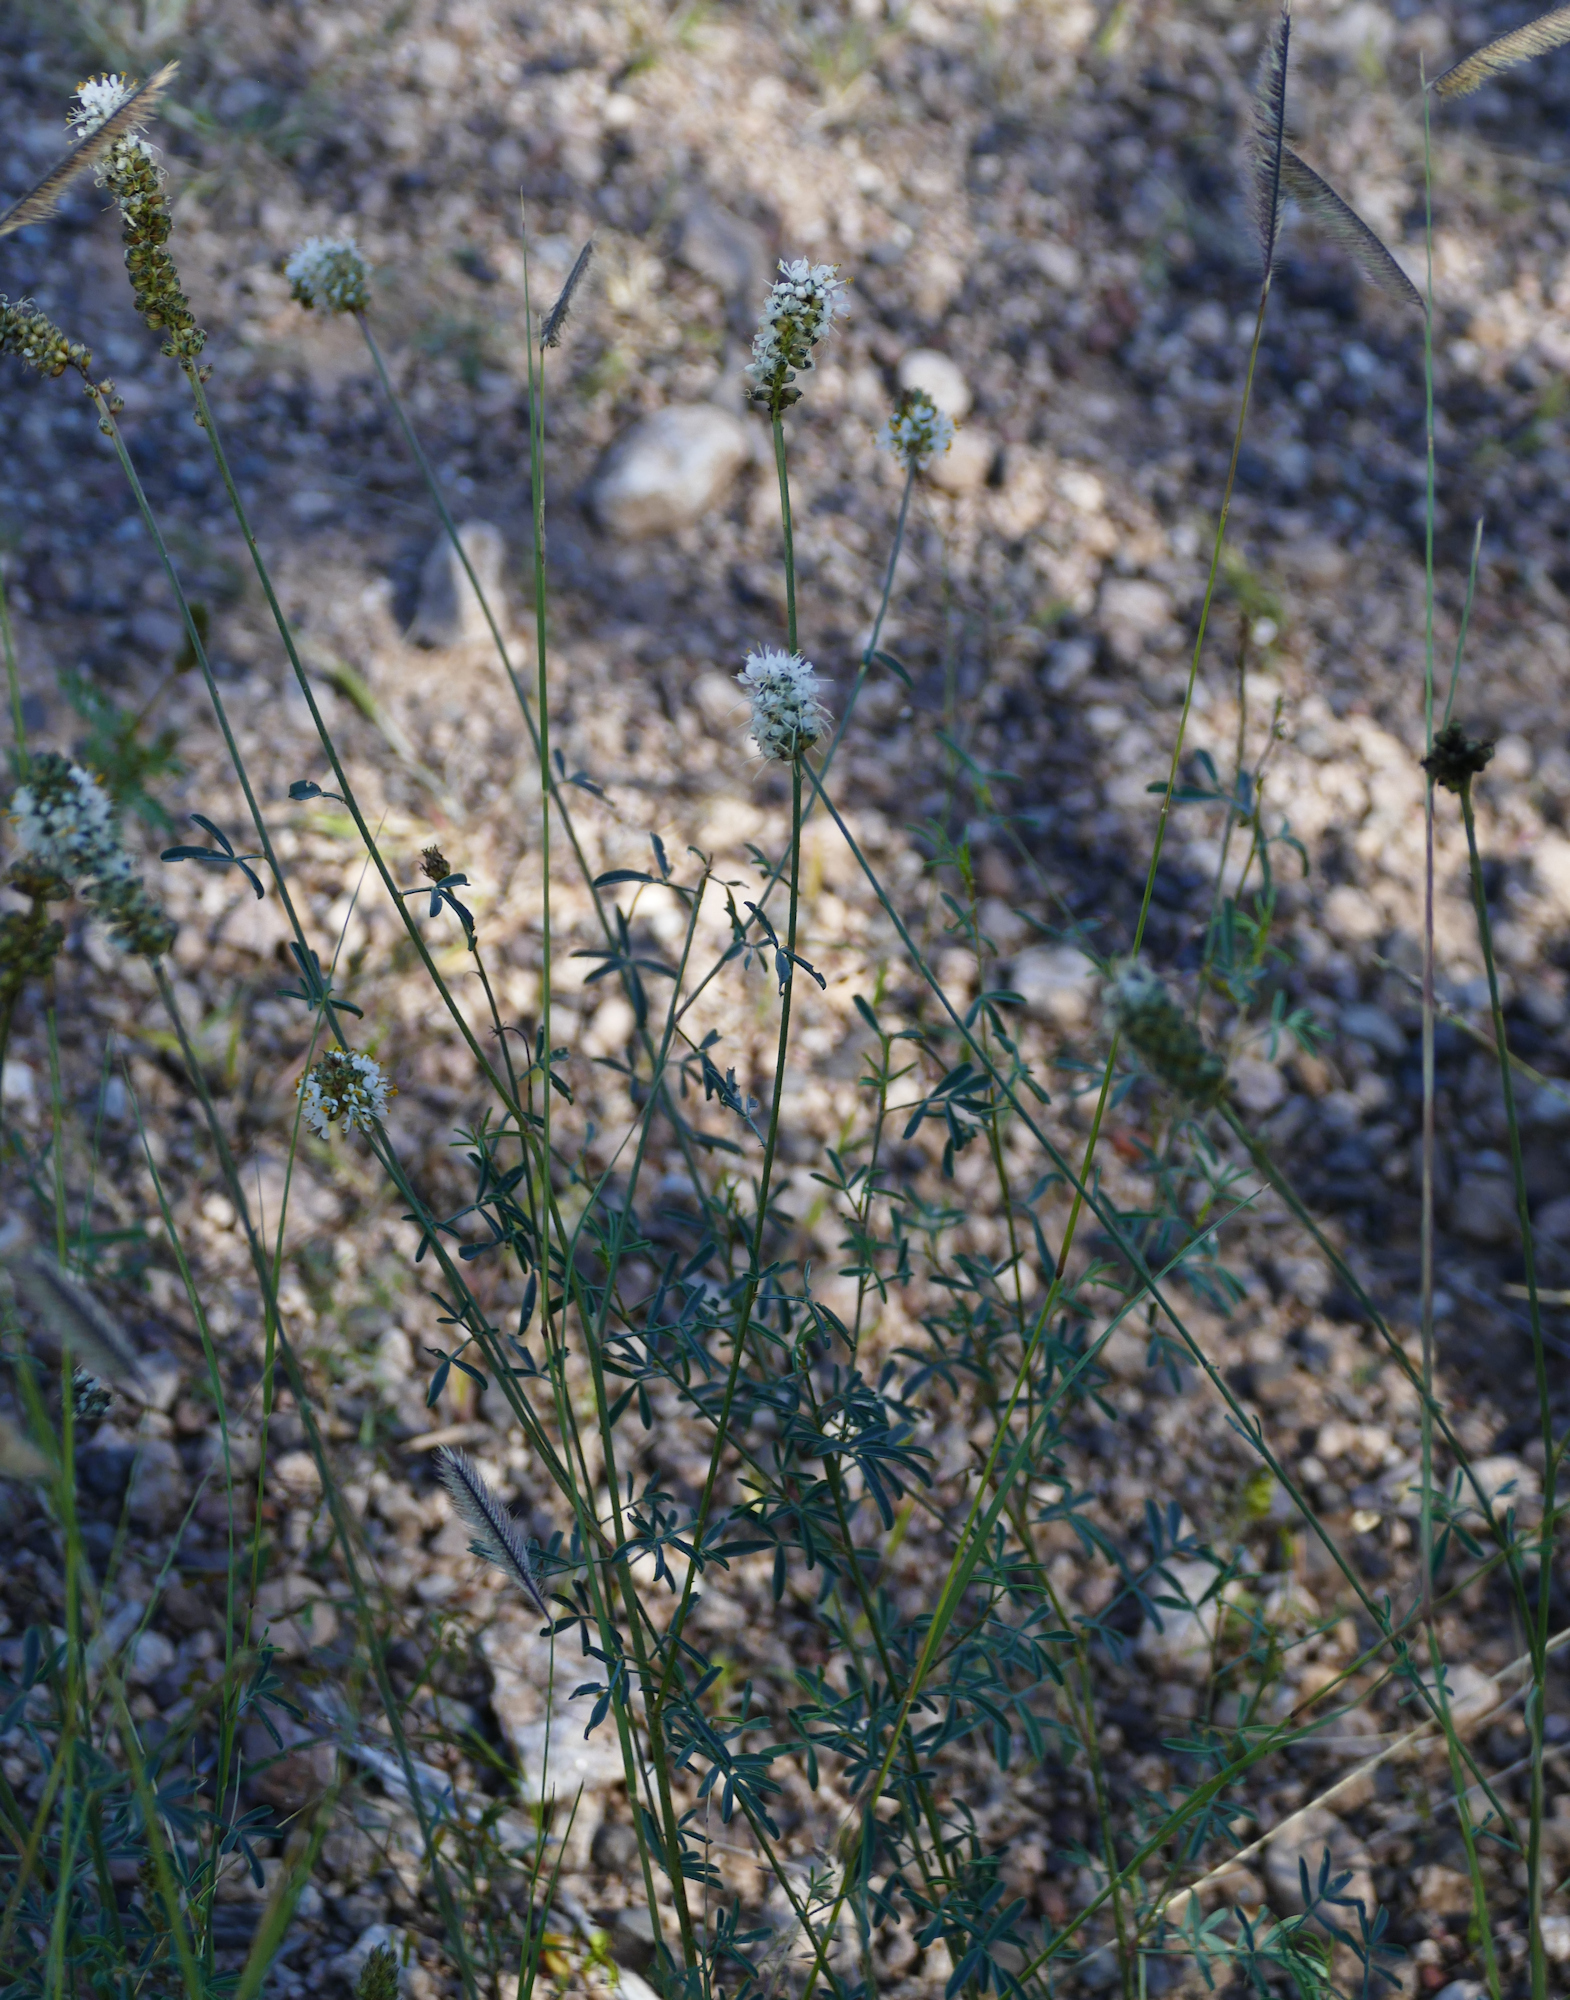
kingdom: Plantae
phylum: Tracheophyta
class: Magnoliopsida
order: Fabales
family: Fabaceae
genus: Dalea
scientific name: Dalea candida
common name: White prairie-clover
